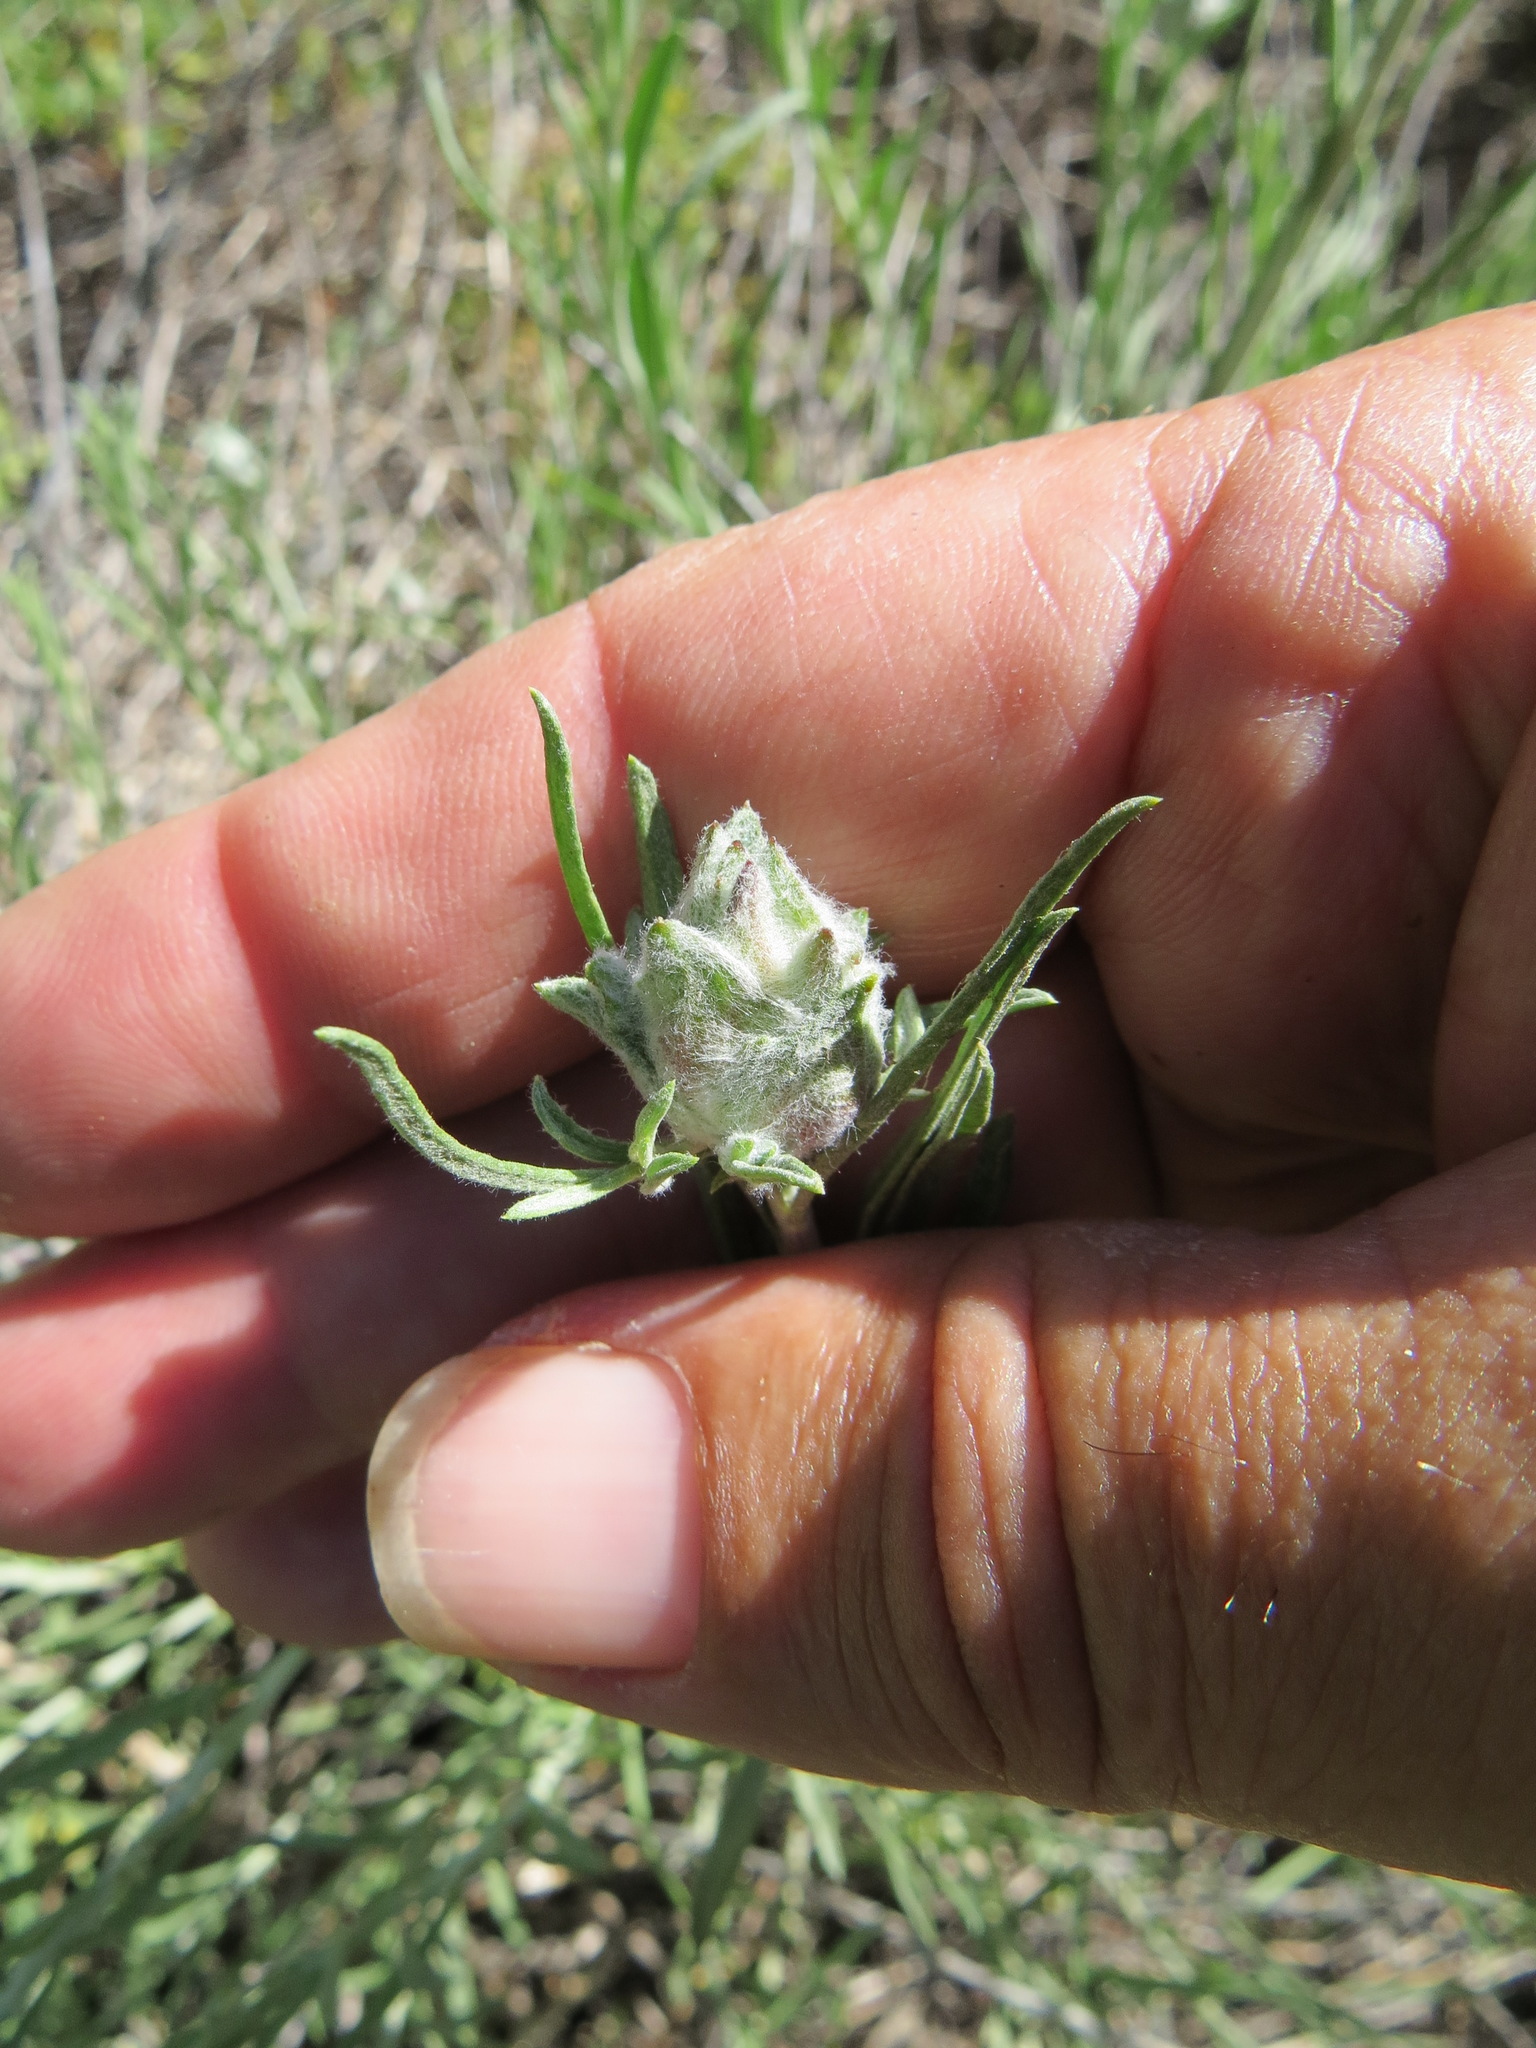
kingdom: Animalia
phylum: Arthropoda
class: Insecta
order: Diptera
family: Tephritidae
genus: Procecidochares
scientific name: Procecidochares minuta
